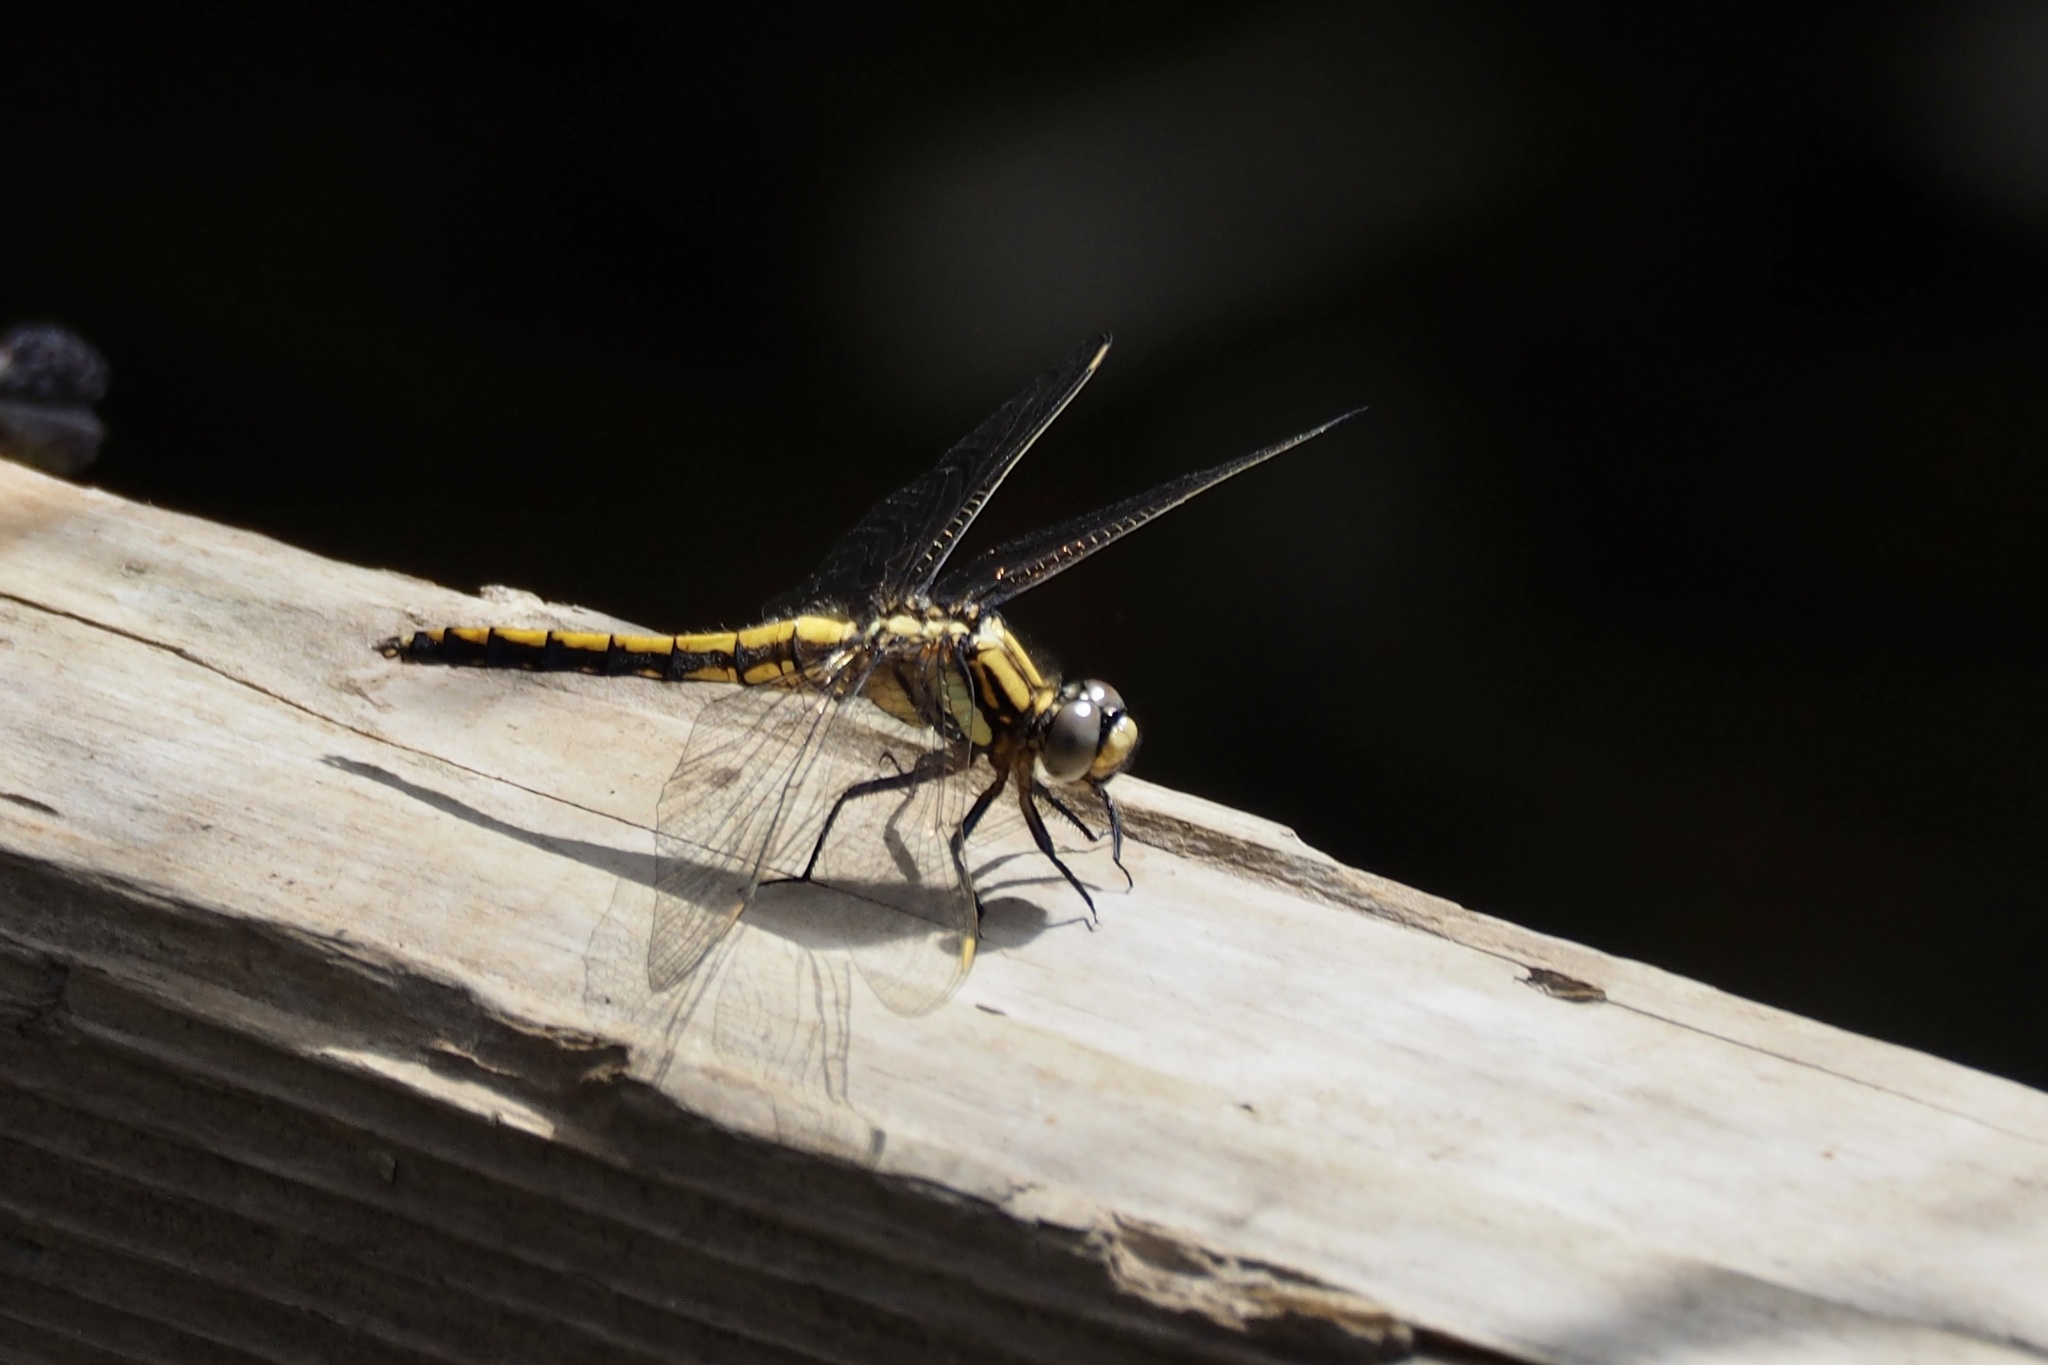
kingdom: Animalia
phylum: Arthropoda
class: Insecta
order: Odonata
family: Libellulidae
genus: Orthetrum
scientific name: Orthetrum japonicum
